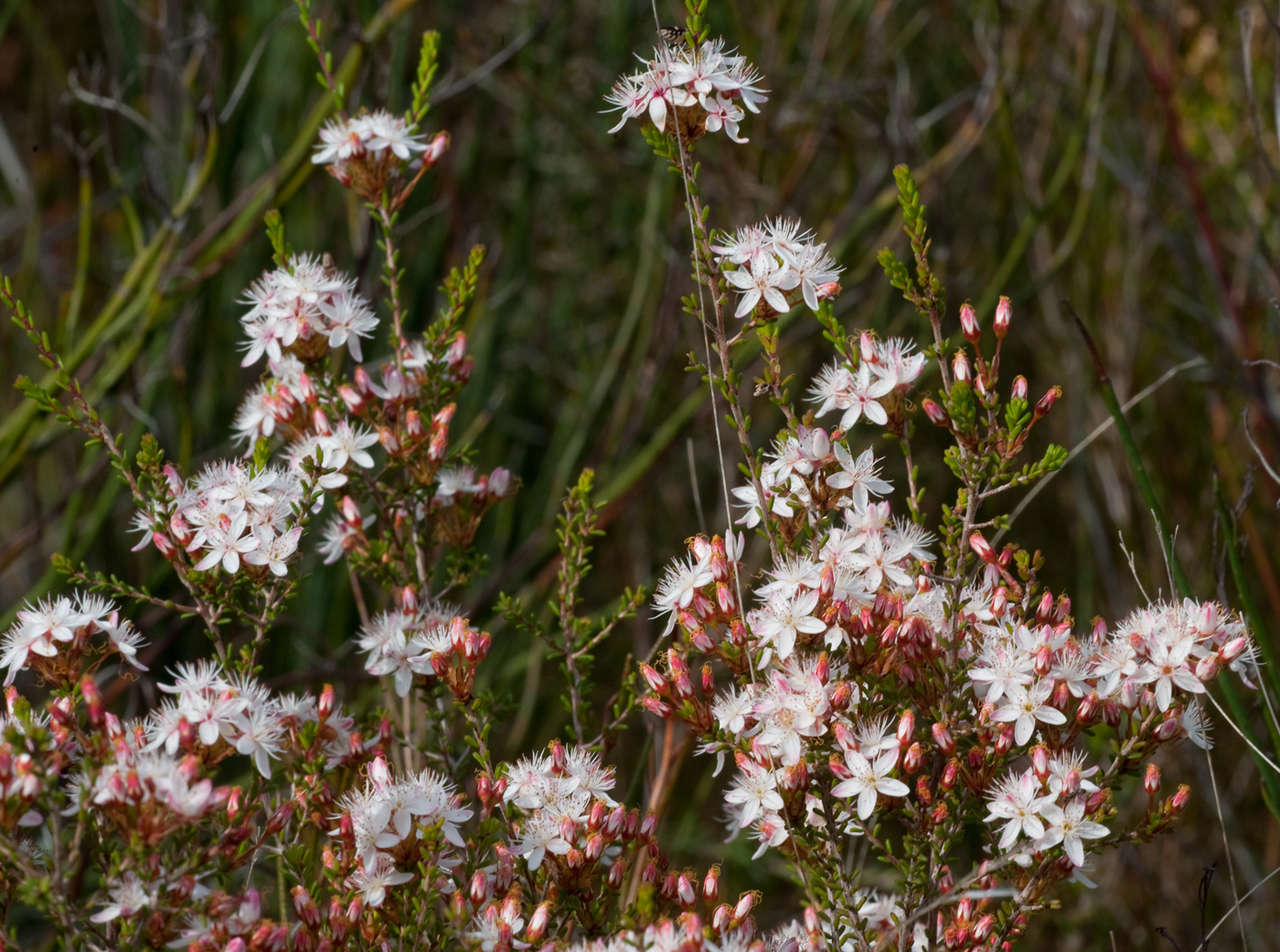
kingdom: Plantae
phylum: Tracheophyta
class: Magnoliopsida
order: Myrtales
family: Myrtaceae
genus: Calytrix
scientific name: Calytrix tetragona
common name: Common fringe myrtle
